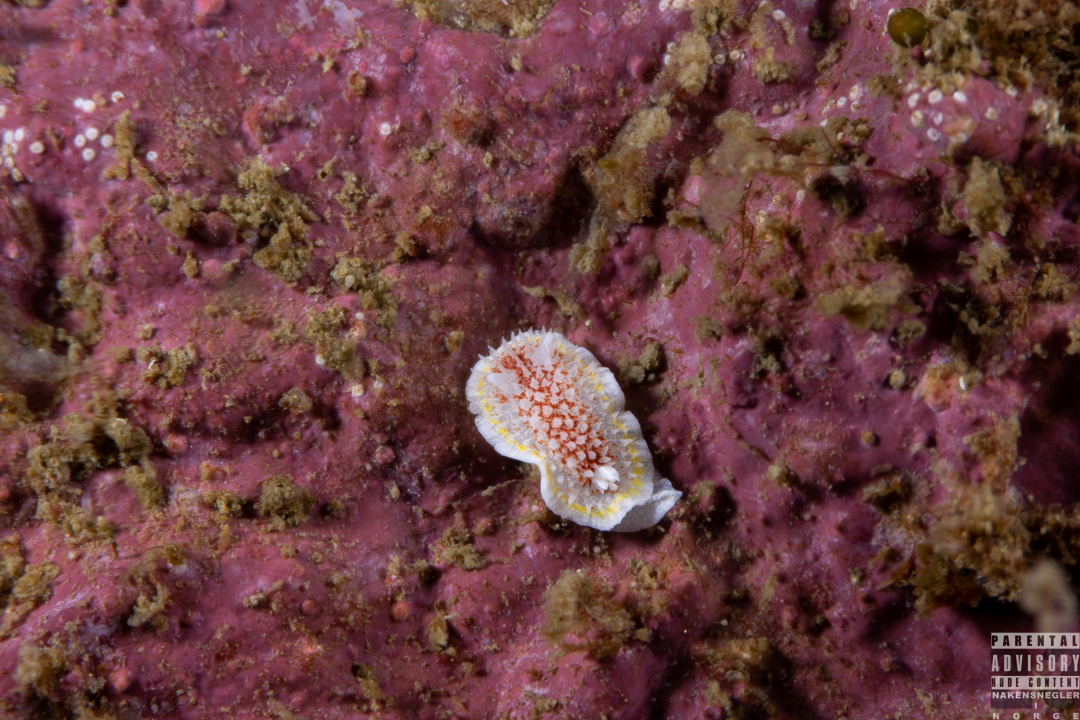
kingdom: Animalia
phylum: Mollusca
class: Gastropoda
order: Nudibranchia
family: Calycidorididae
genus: Diaphorodoris
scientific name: Diaphorodoris luteocincta
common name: Fried egg nudibranch
